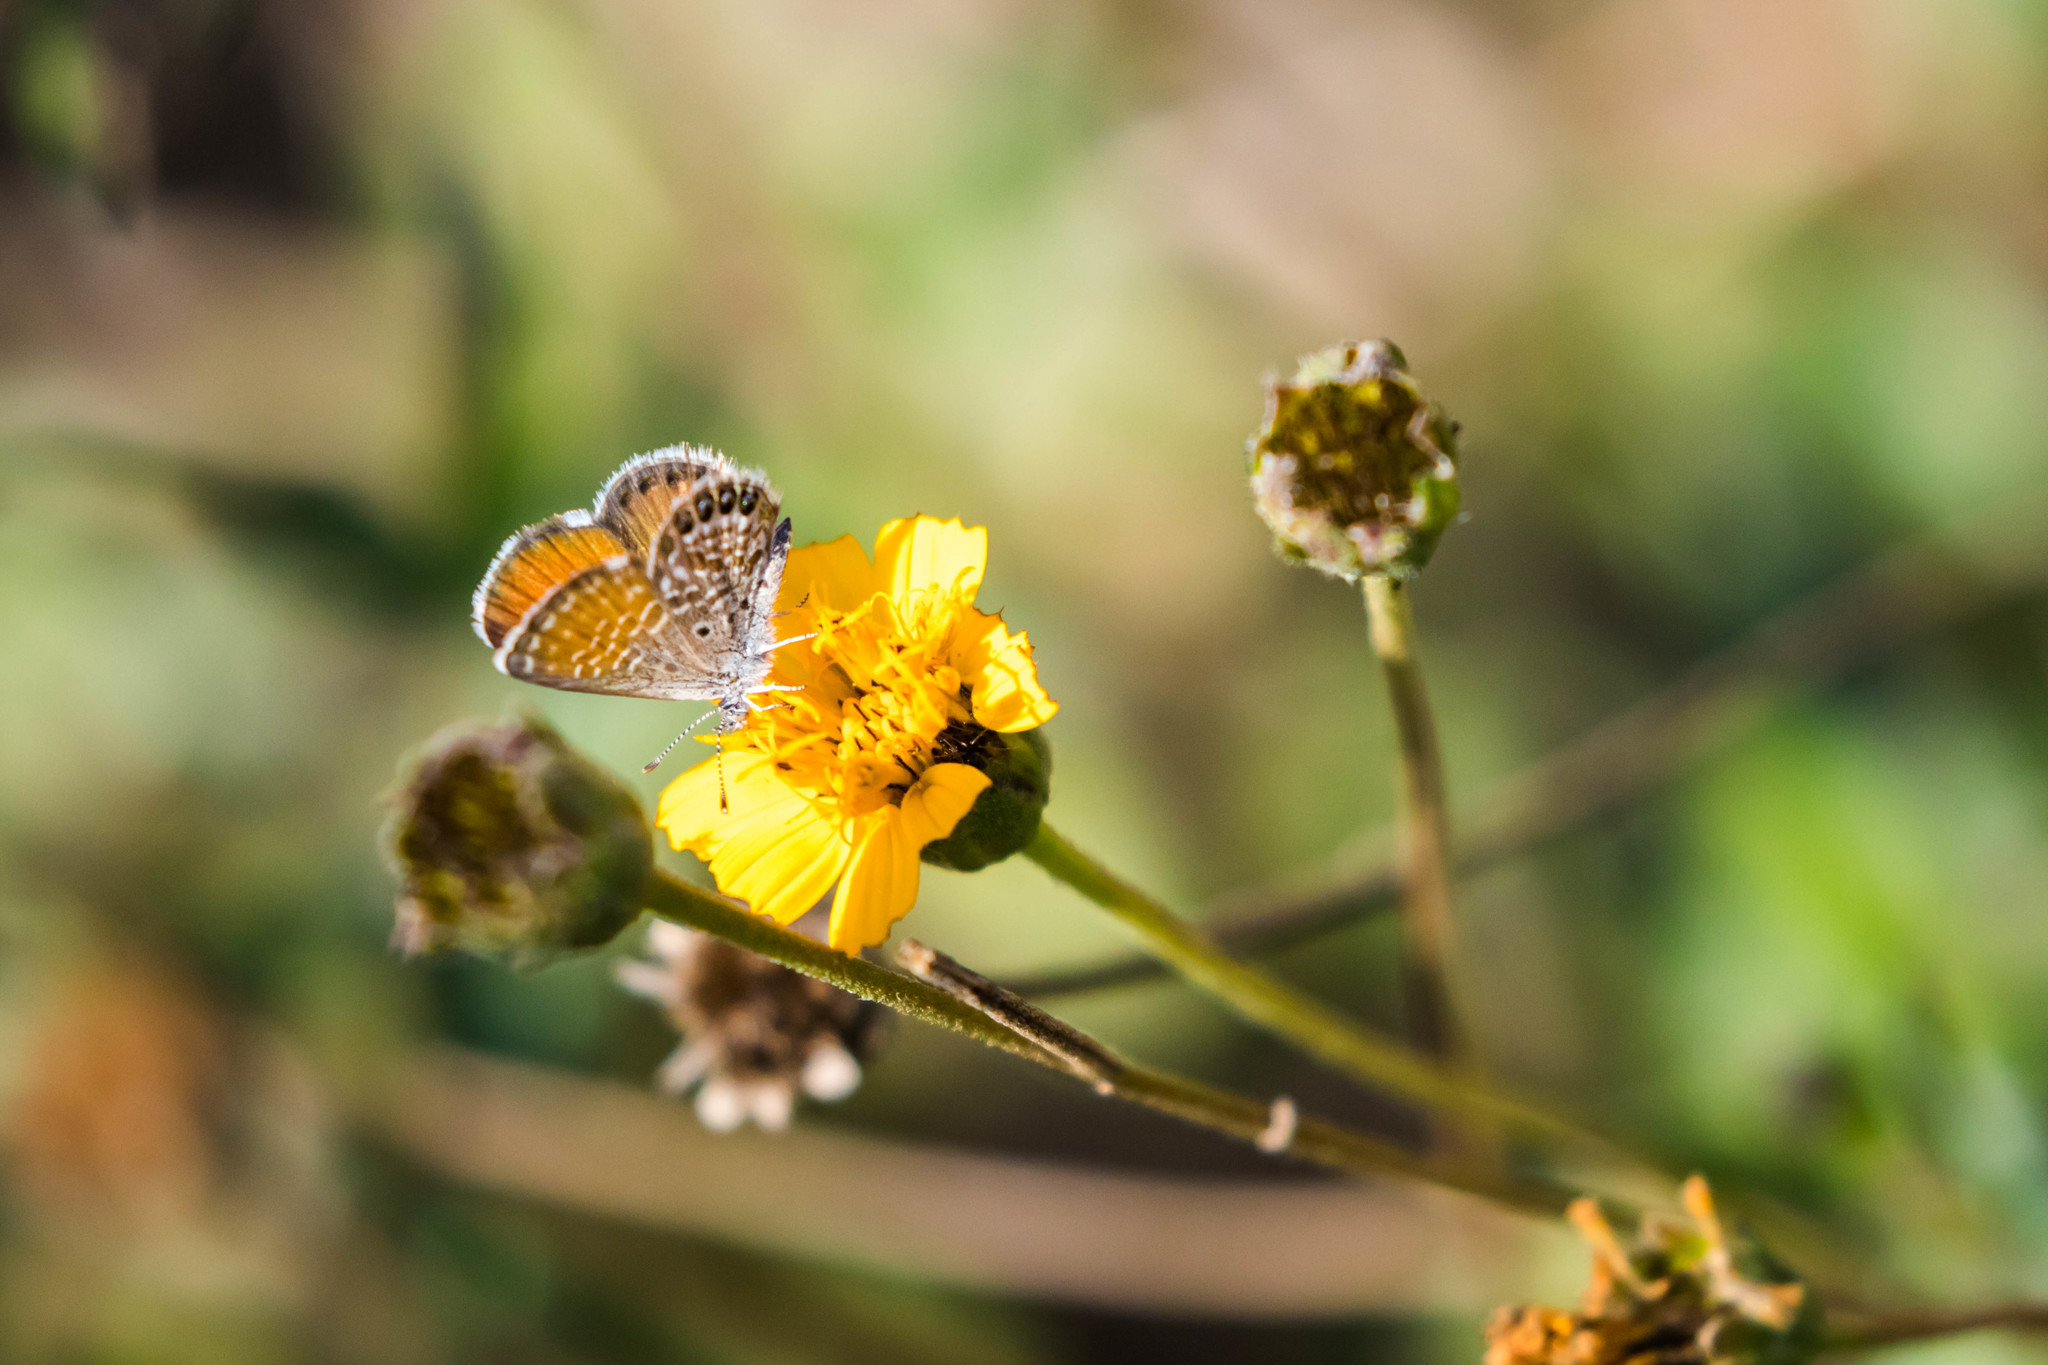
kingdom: Animalia
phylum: Arthropoda
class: Insecta
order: Lepidoptera
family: Lycaenidae
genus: Brephidium
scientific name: Brephidium exilis
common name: Pygmy blue
